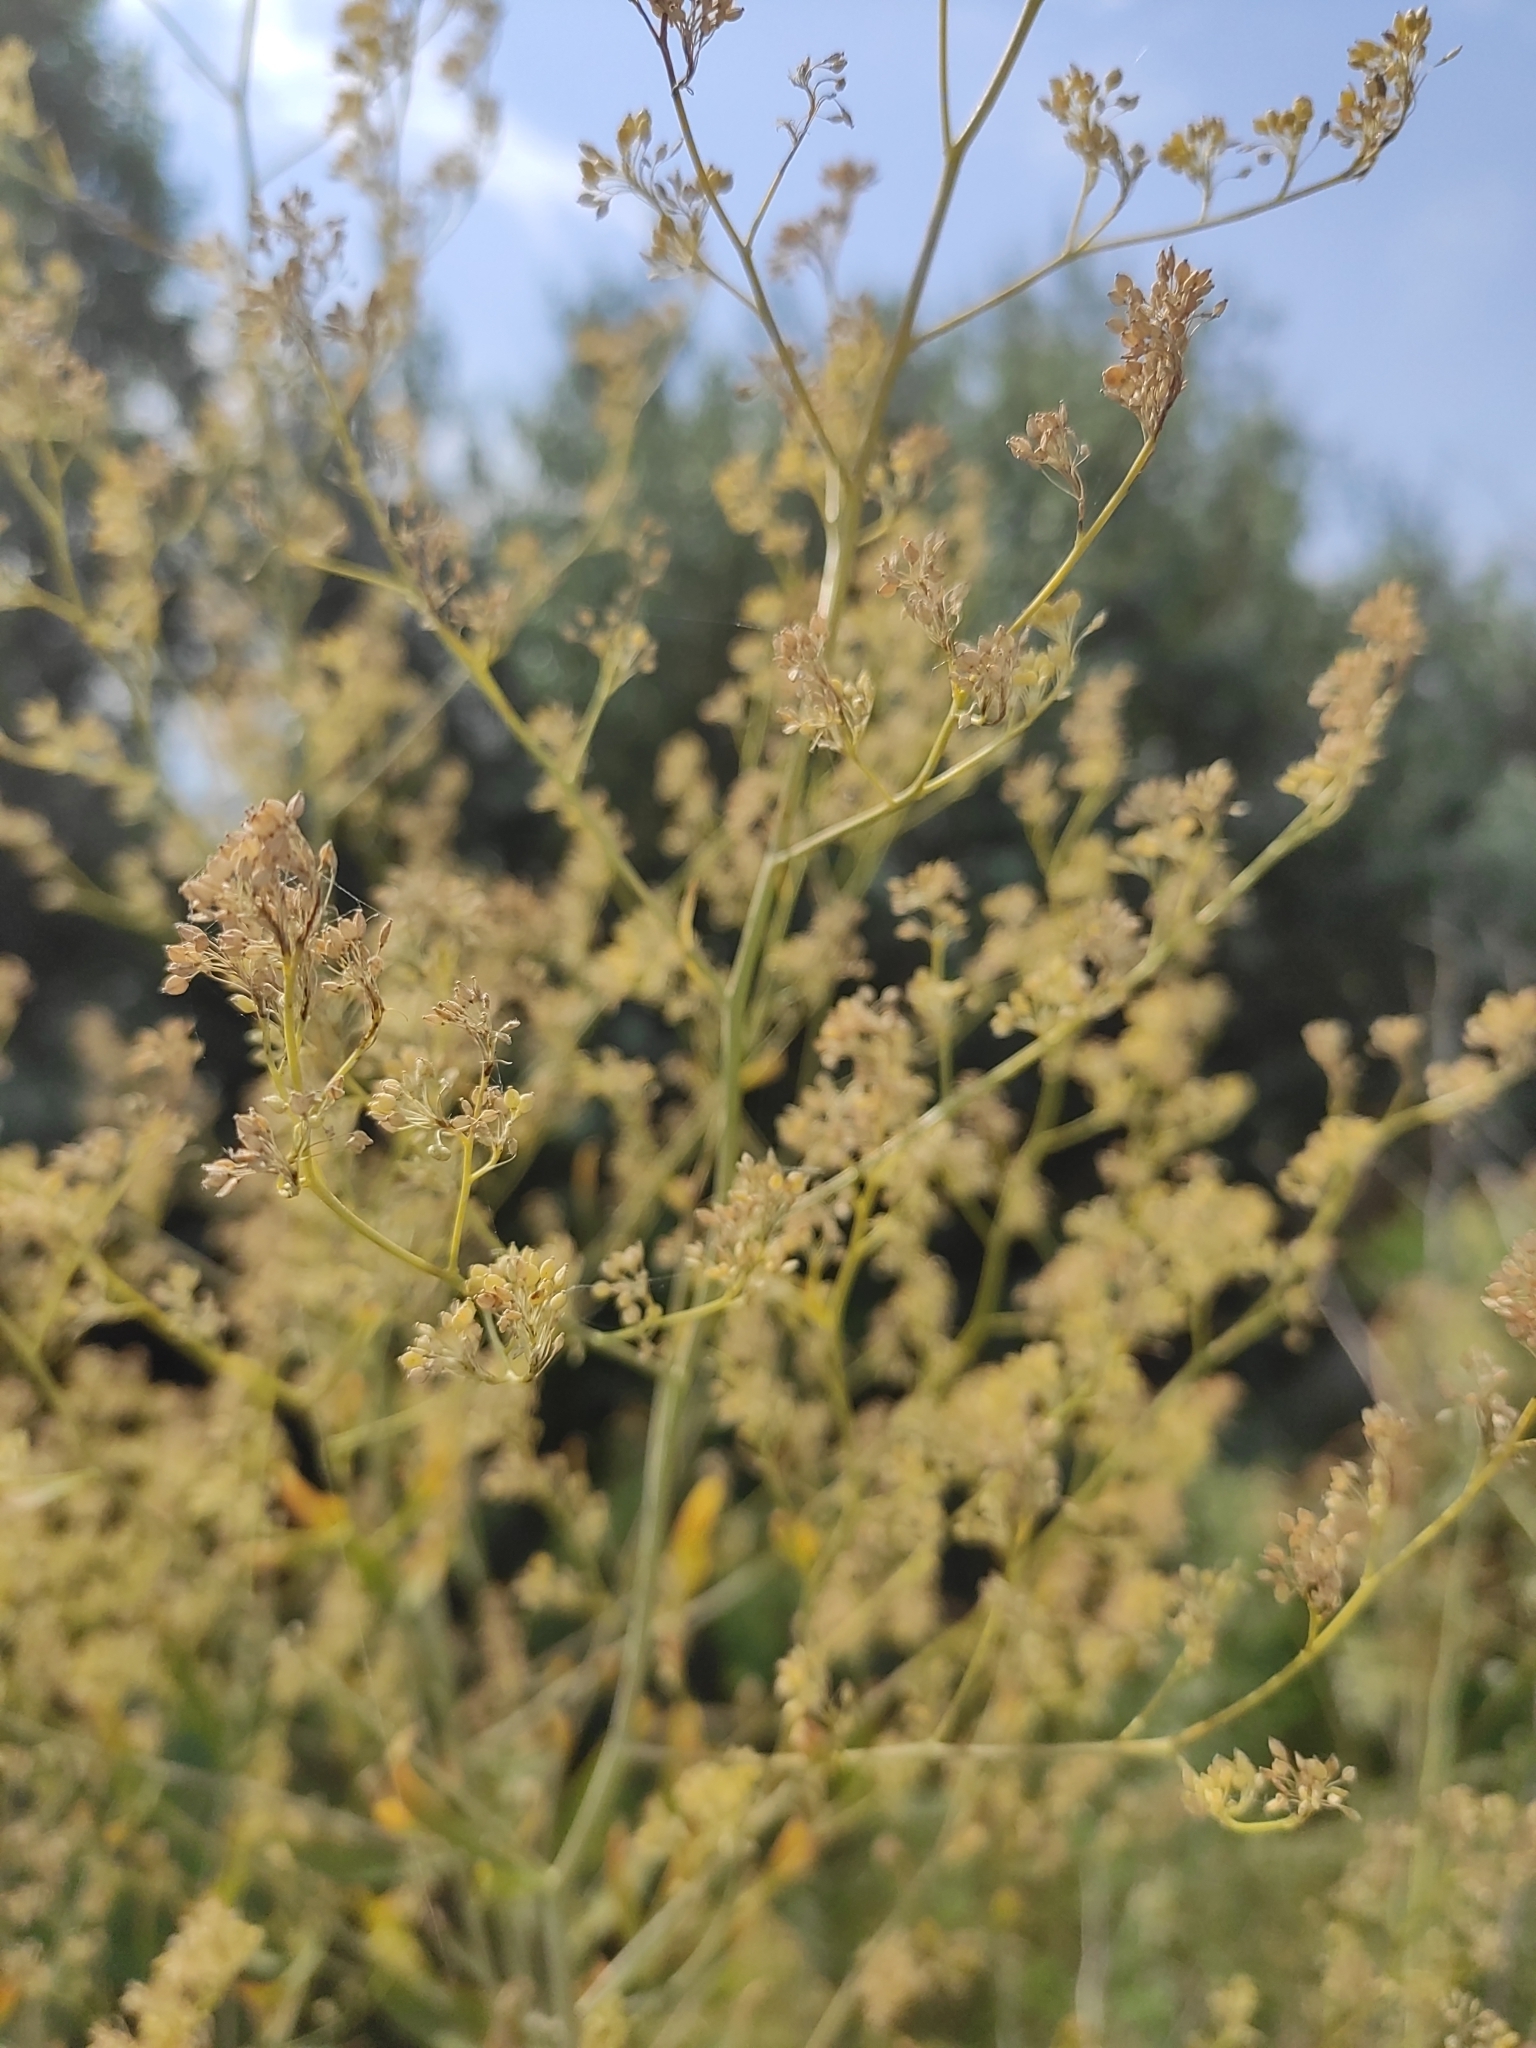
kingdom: Plantae
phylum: Tracheophyta
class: Magnoliopsida
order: Brassicales
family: Brassicaceae
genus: Lepidium
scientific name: Lepidium latifolium
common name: Dittander
